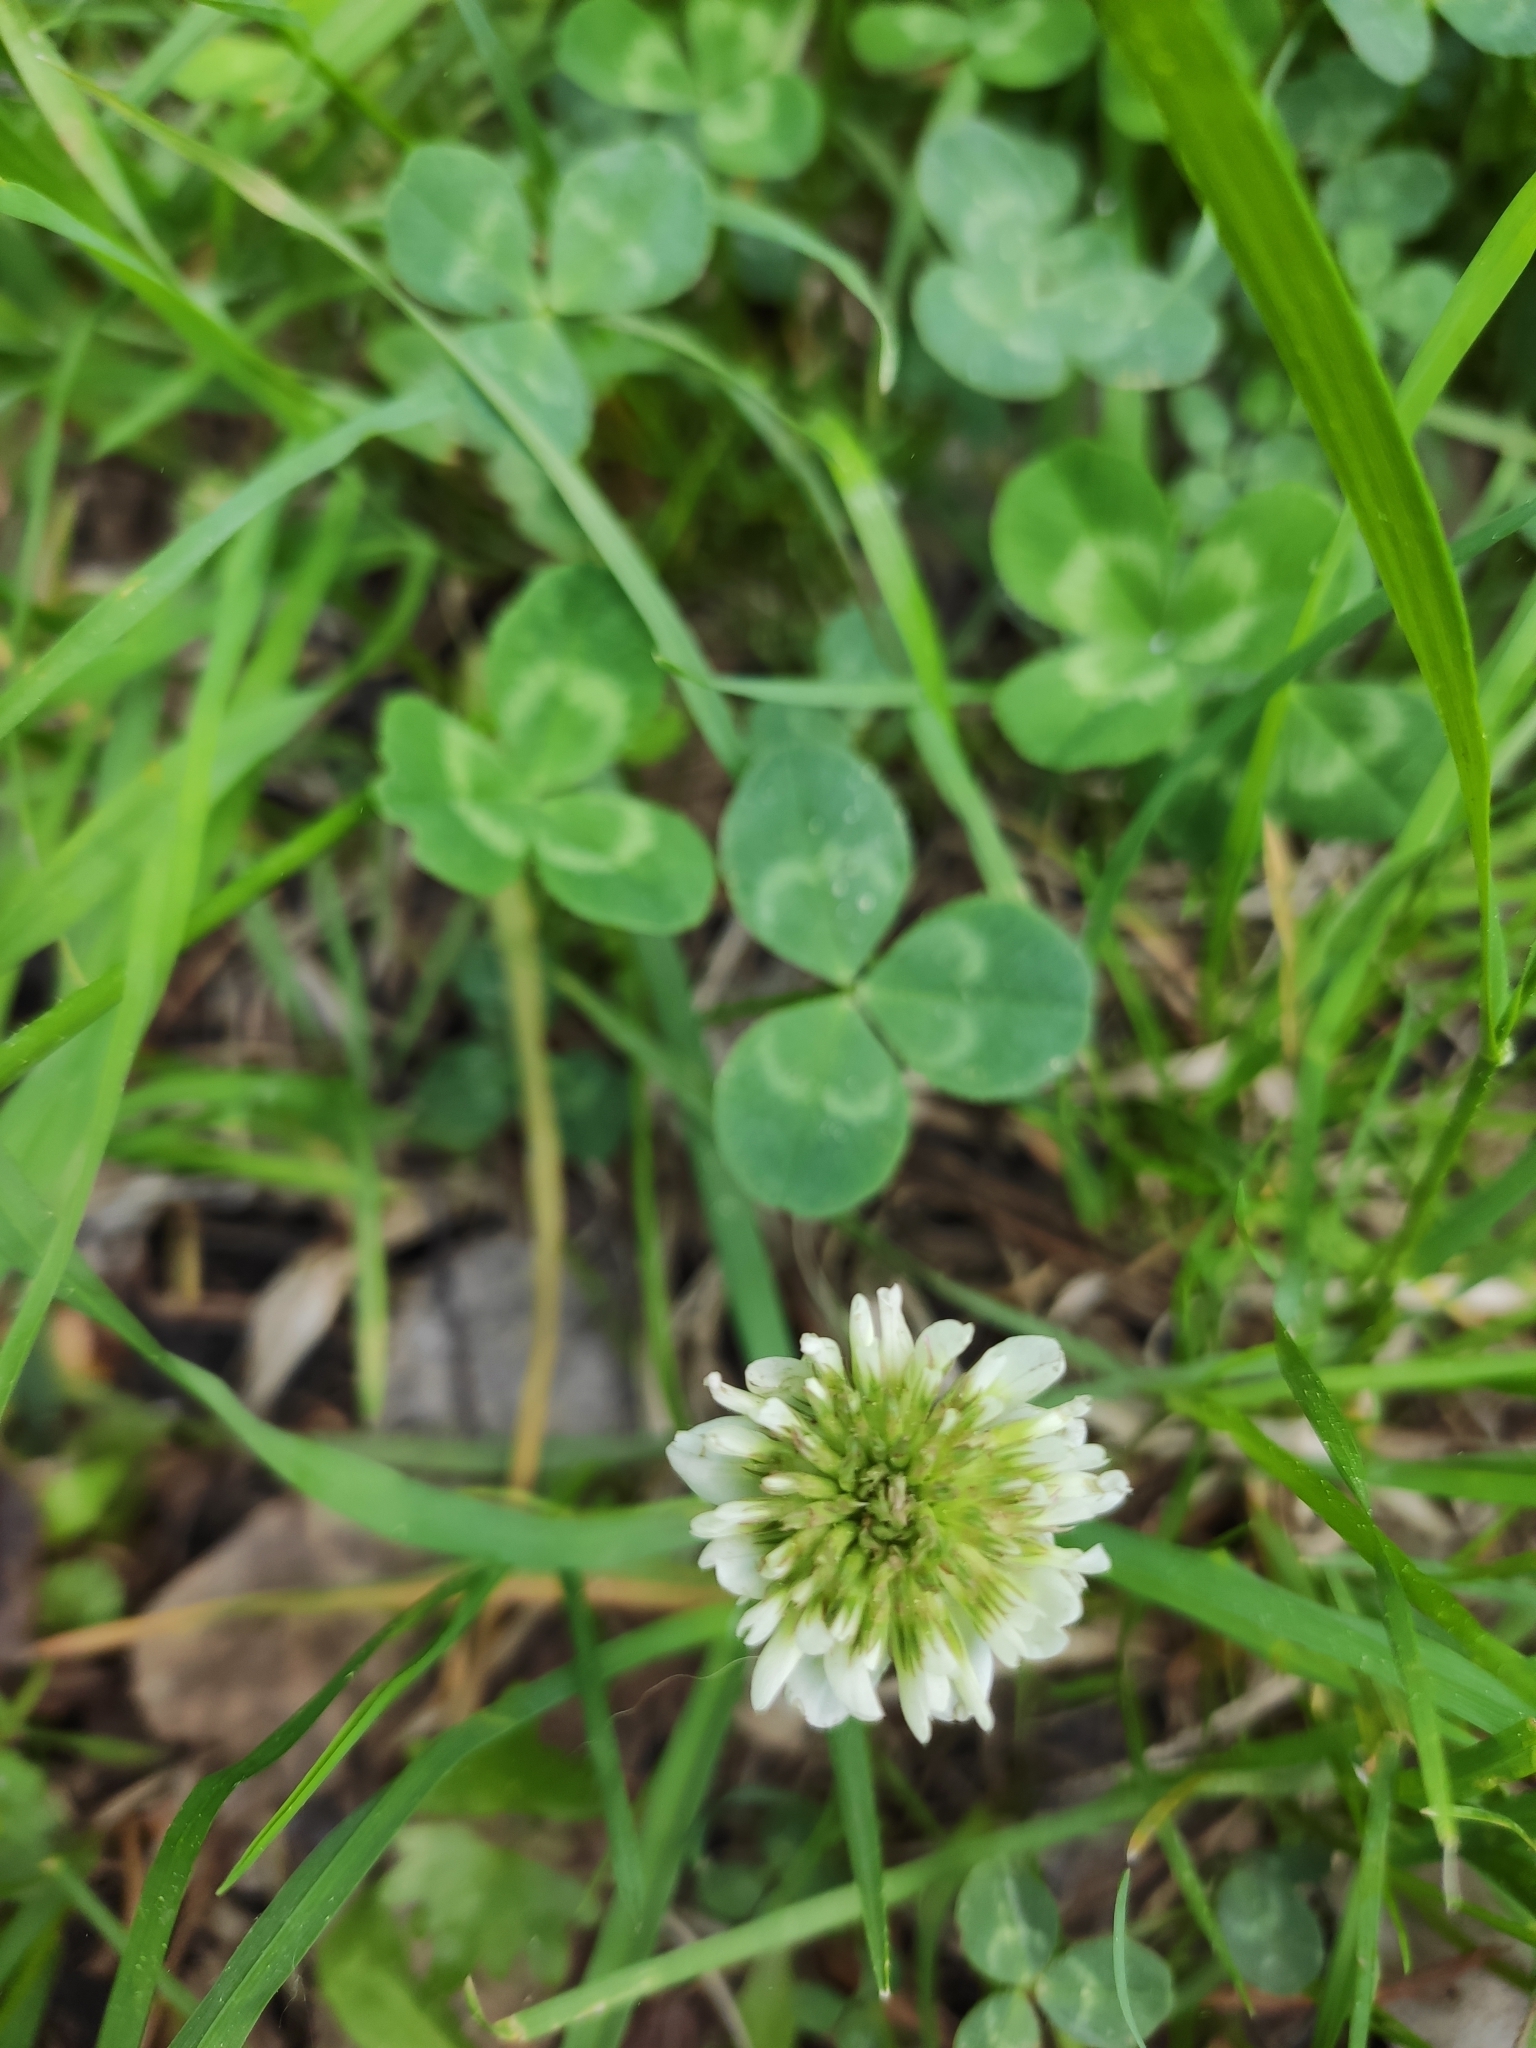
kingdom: Plantae
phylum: Tracheophyta
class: Magnoliopsida
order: Fabales
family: Fabaceae
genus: Trifolium
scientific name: Trifolium repens
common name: White clover
